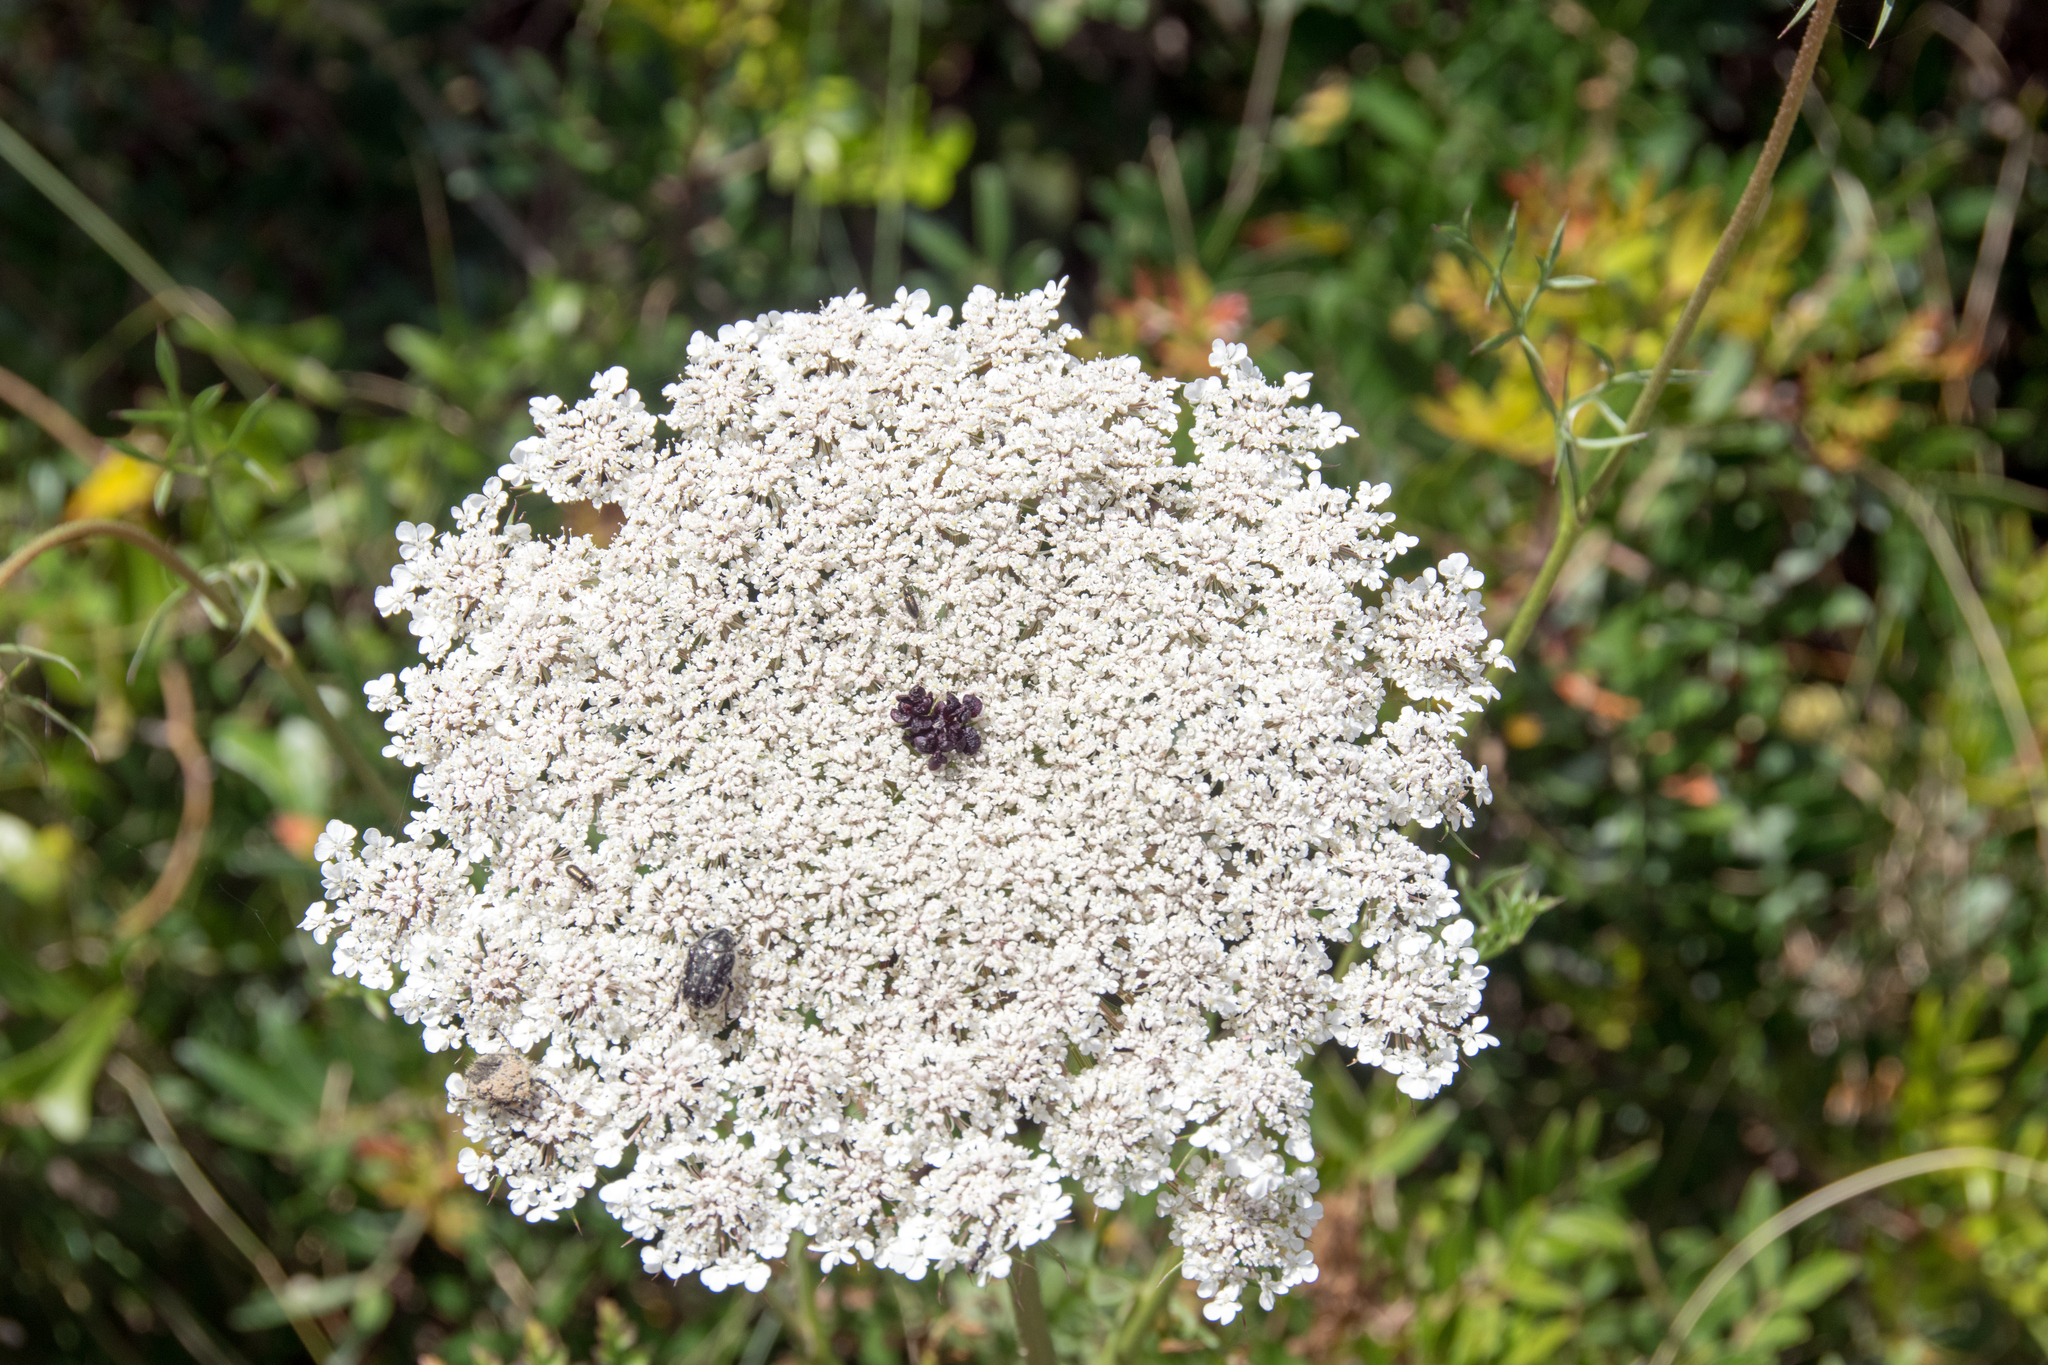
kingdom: Plantae
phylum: Tracheophyta
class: Magnoliopsida
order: Apiales
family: Apiaceae
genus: Daucus
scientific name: Daucus carota
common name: Wild carrot
